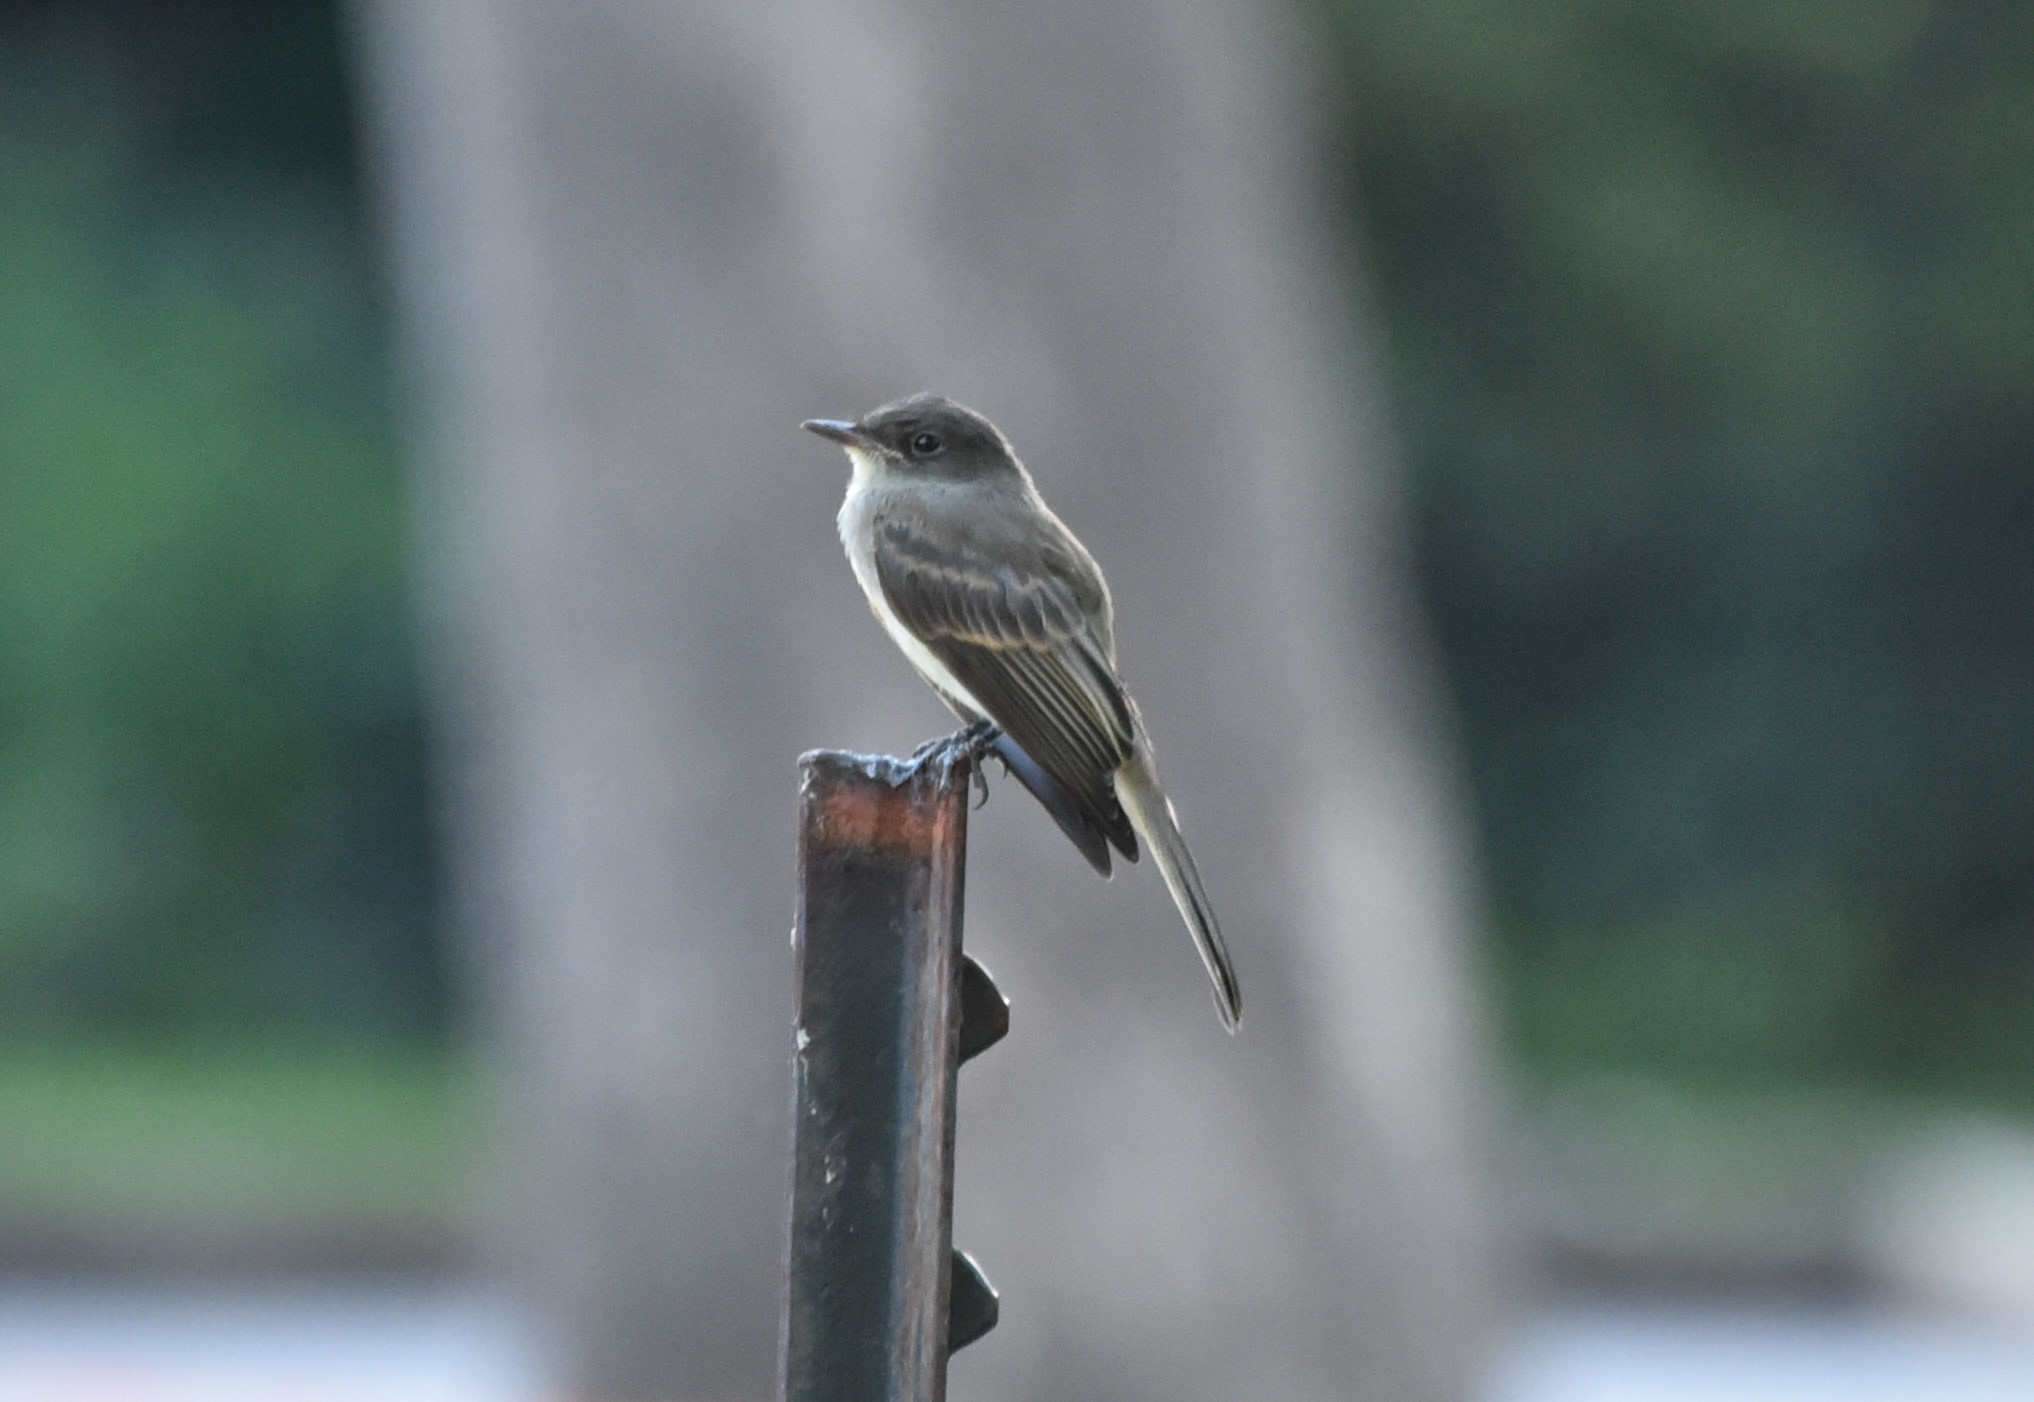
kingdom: Animalia
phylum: Chordata
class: Aves
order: Passeriformes
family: Tyrannidae
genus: Sayornis
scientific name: Sayornis phoebe
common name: Eastern phoebe
